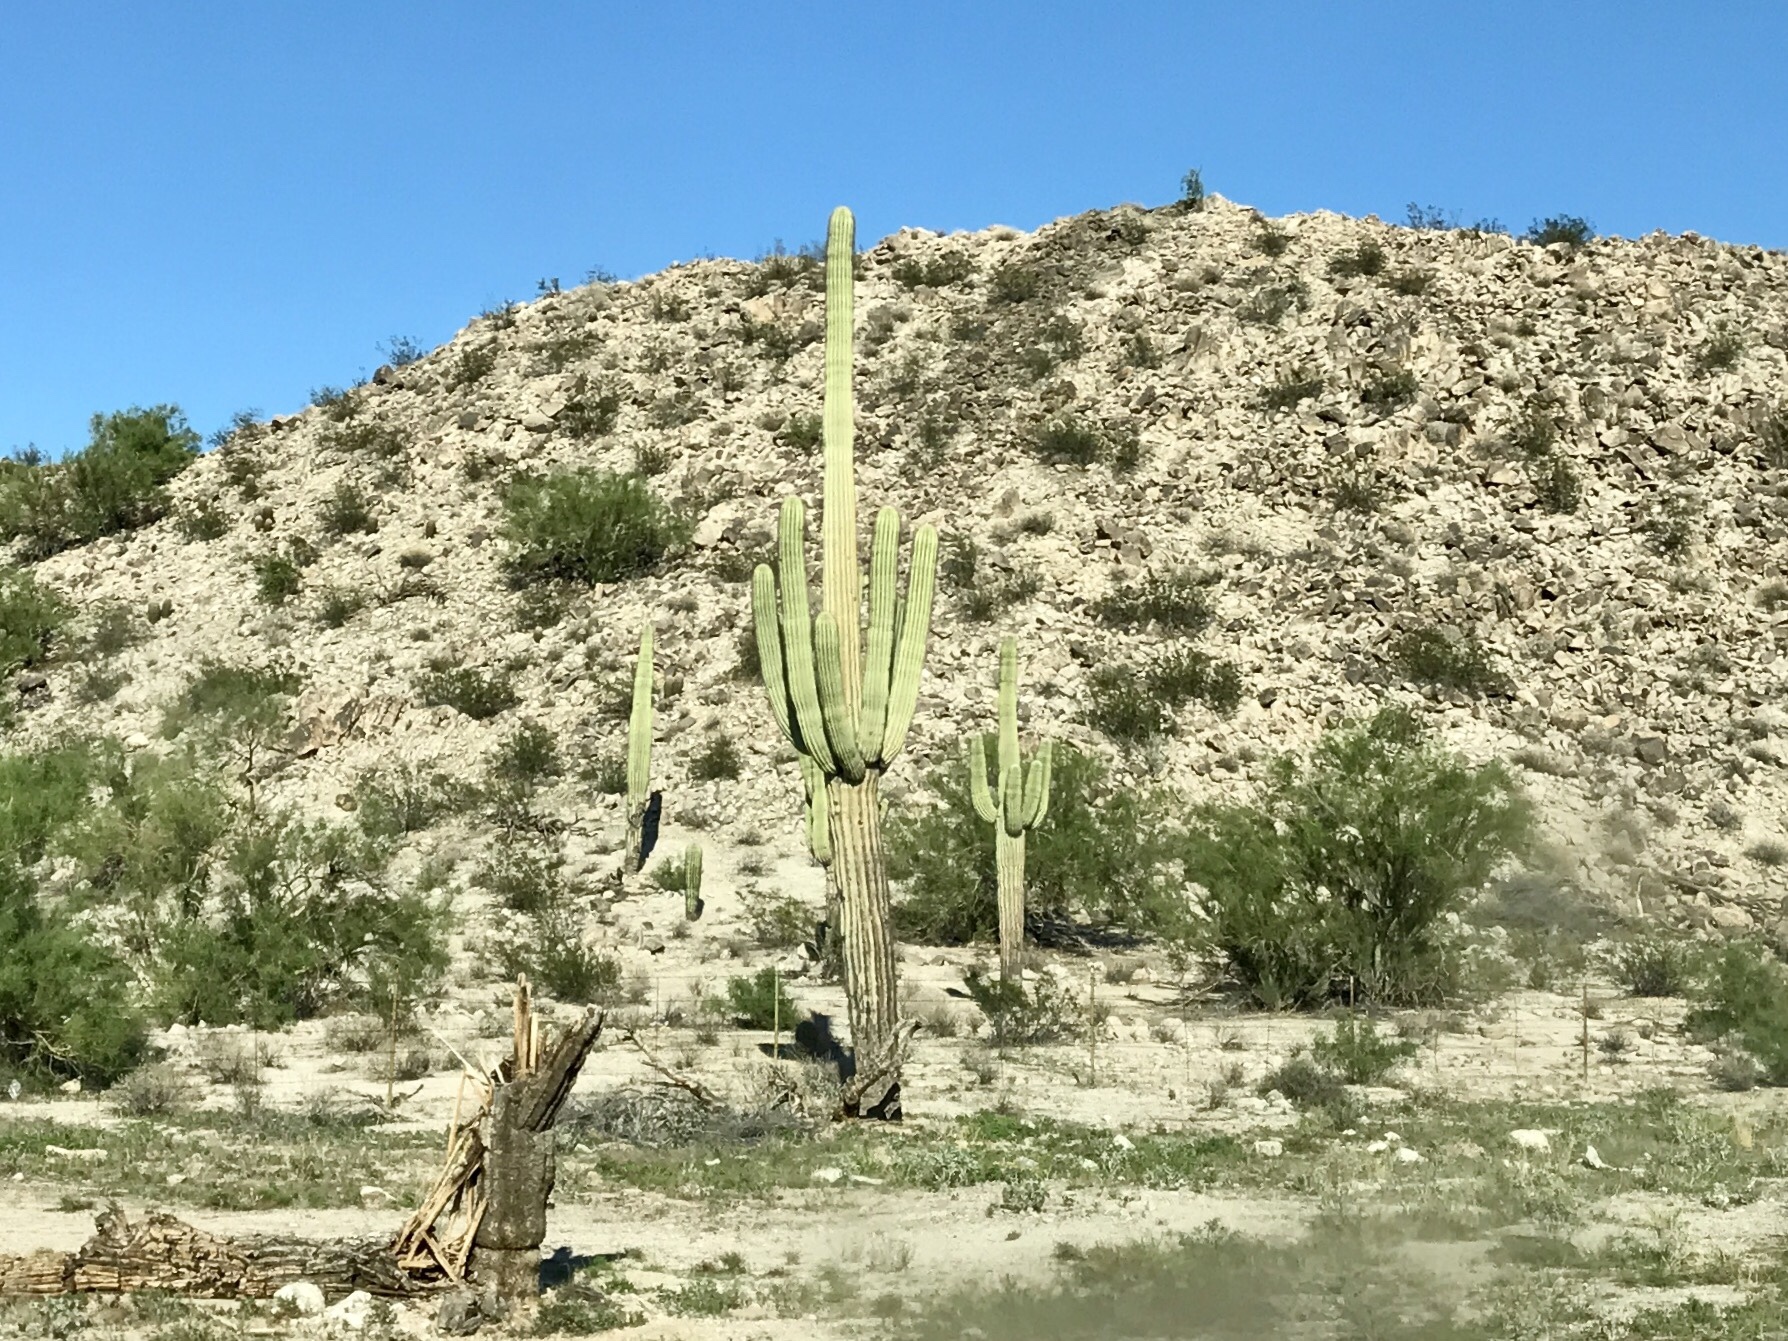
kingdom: Plantae
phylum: Tracheophyta
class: Magnoliopsida
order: Caryophyllales
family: Cactaceae
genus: Carnegiea
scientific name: Carnegiea gigantea
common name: Saguaro
